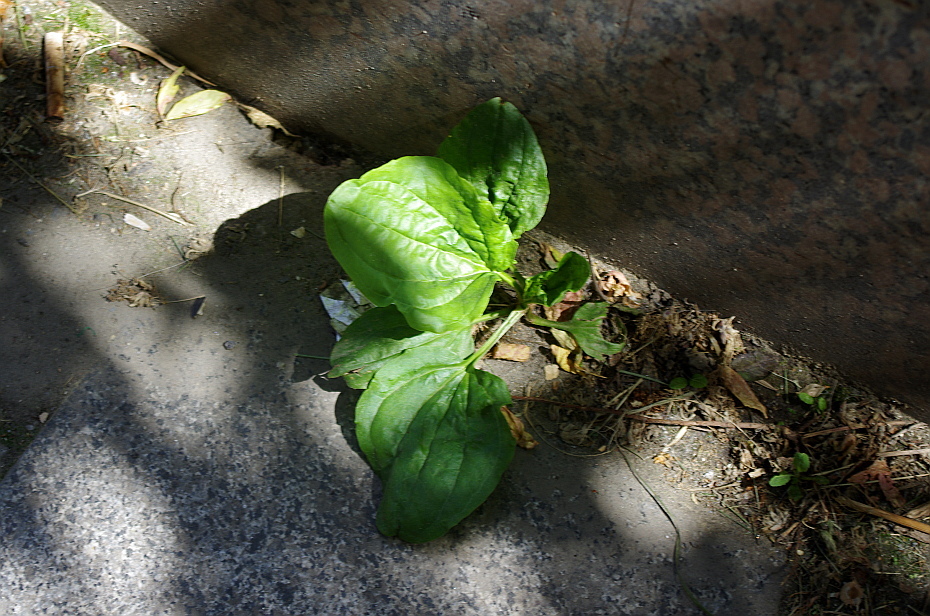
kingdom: Plantae
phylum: Tracheophyta
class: Magnoliopsida
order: Lamiales
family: Plantaginaceae
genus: Plantago
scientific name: Plantago major
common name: Common plantain
